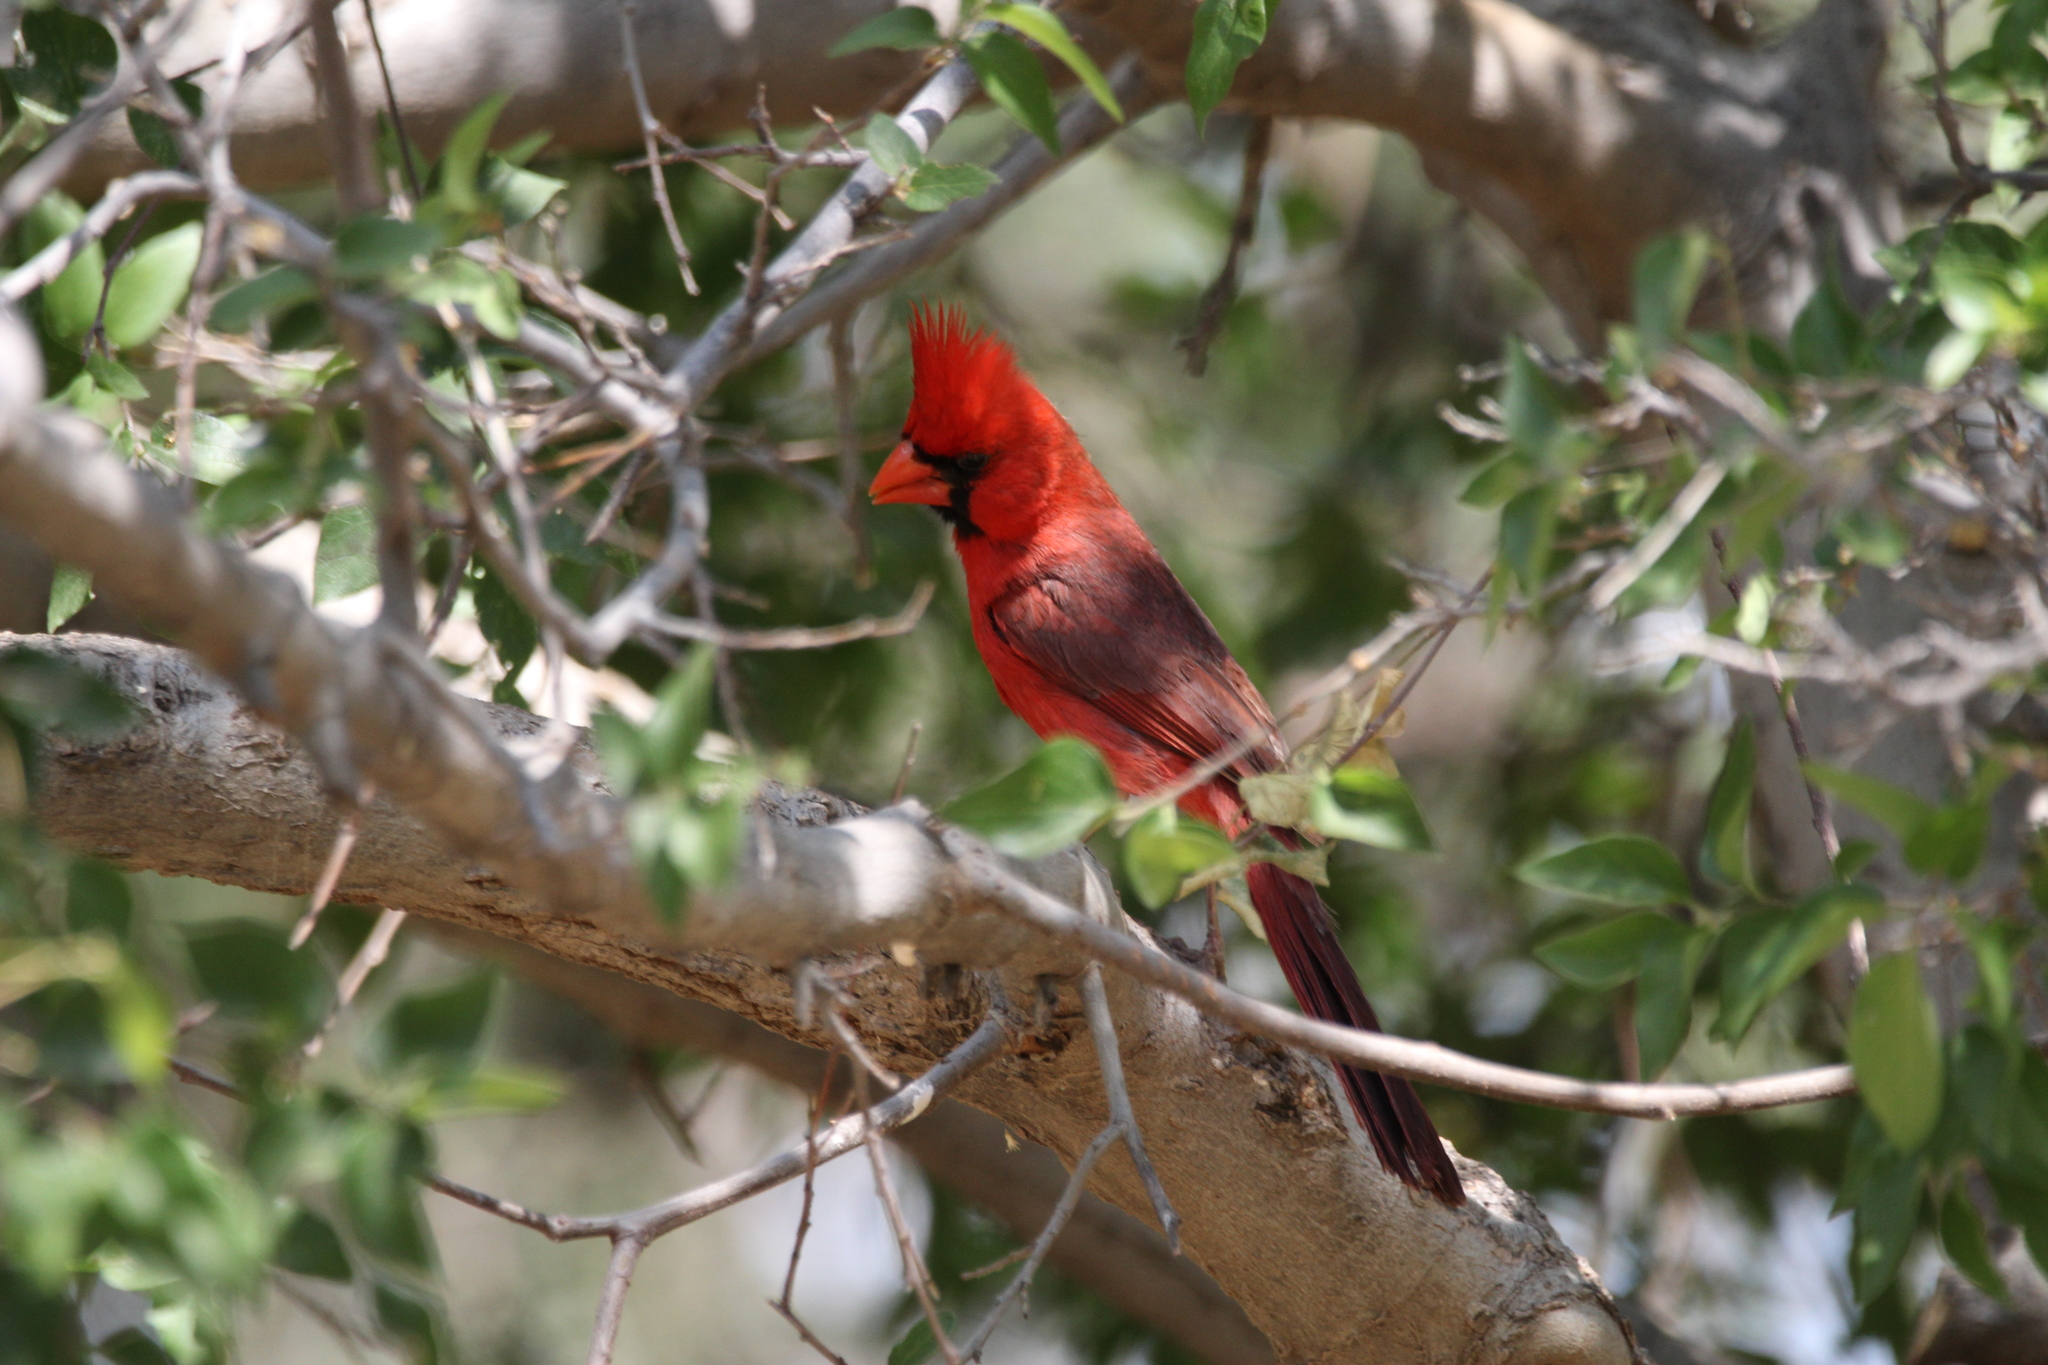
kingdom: Animalia
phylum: Chordata
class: Aves
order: Passeriformes
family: Cardinalidae
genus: Cardinalis
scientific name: Cardinalis cardinalis
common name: Northern cardinal
